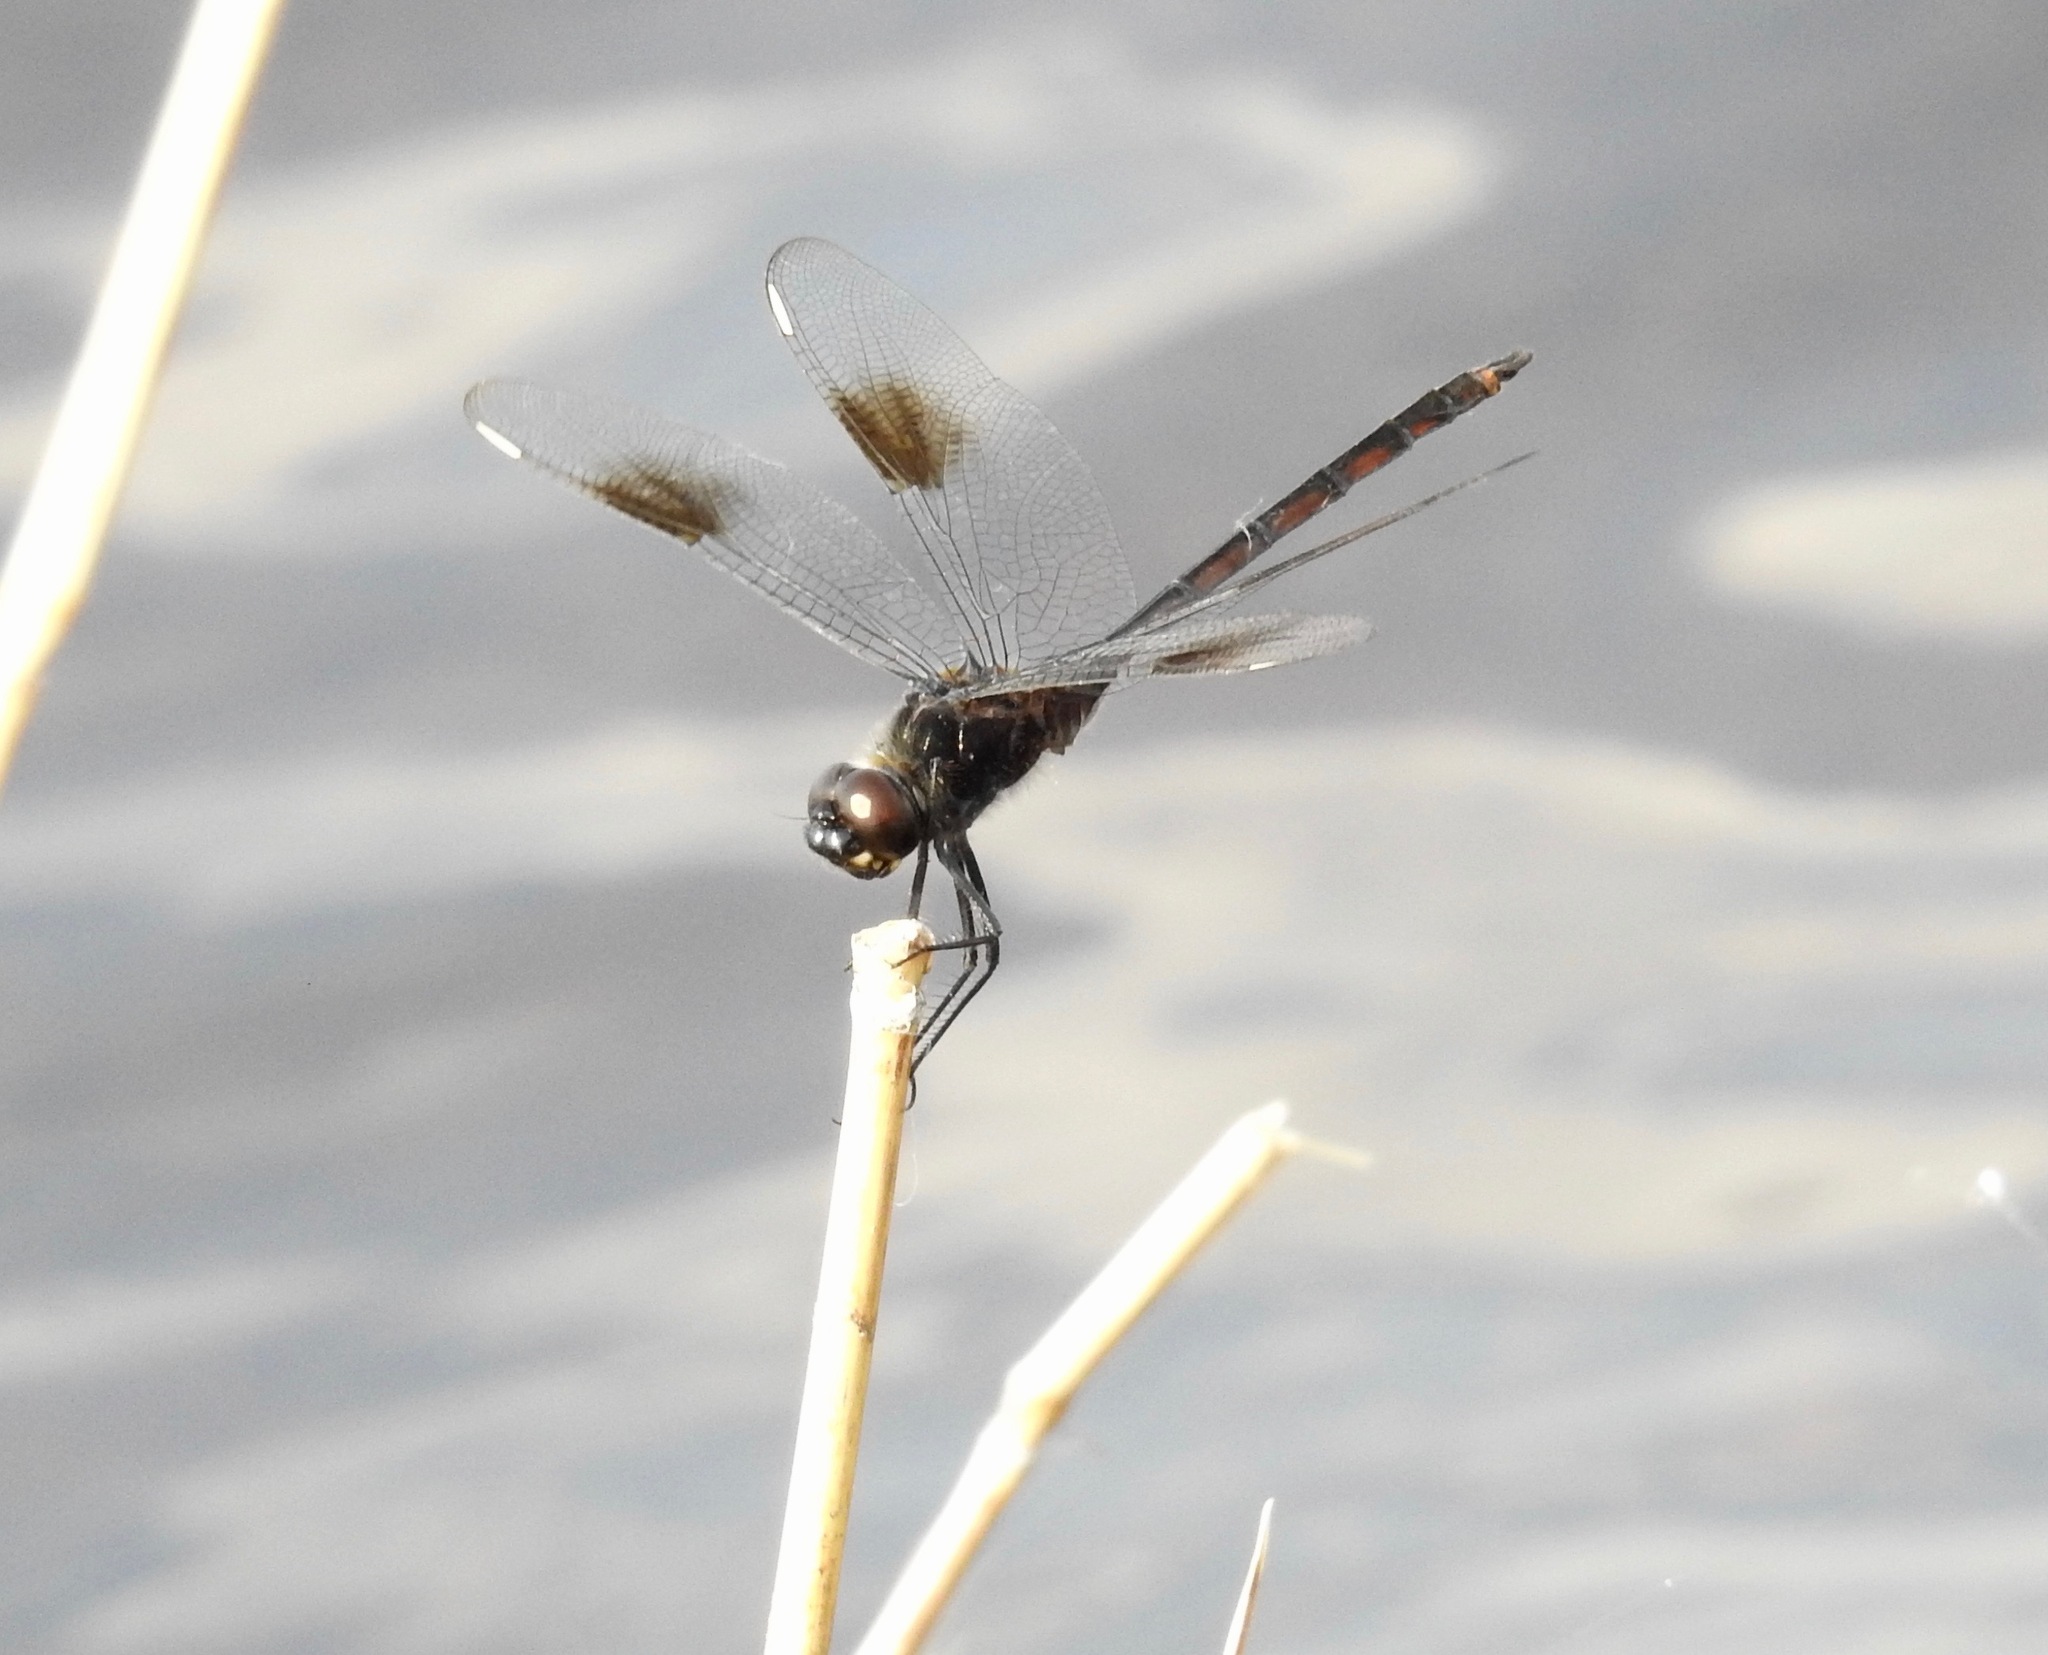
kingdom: Animalia
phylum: Arthropoda
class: Insecta
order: Odonata
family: Libellulidae
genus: Brachymesia
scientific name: Brachymesia gravida
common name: Four-spotted pennant
